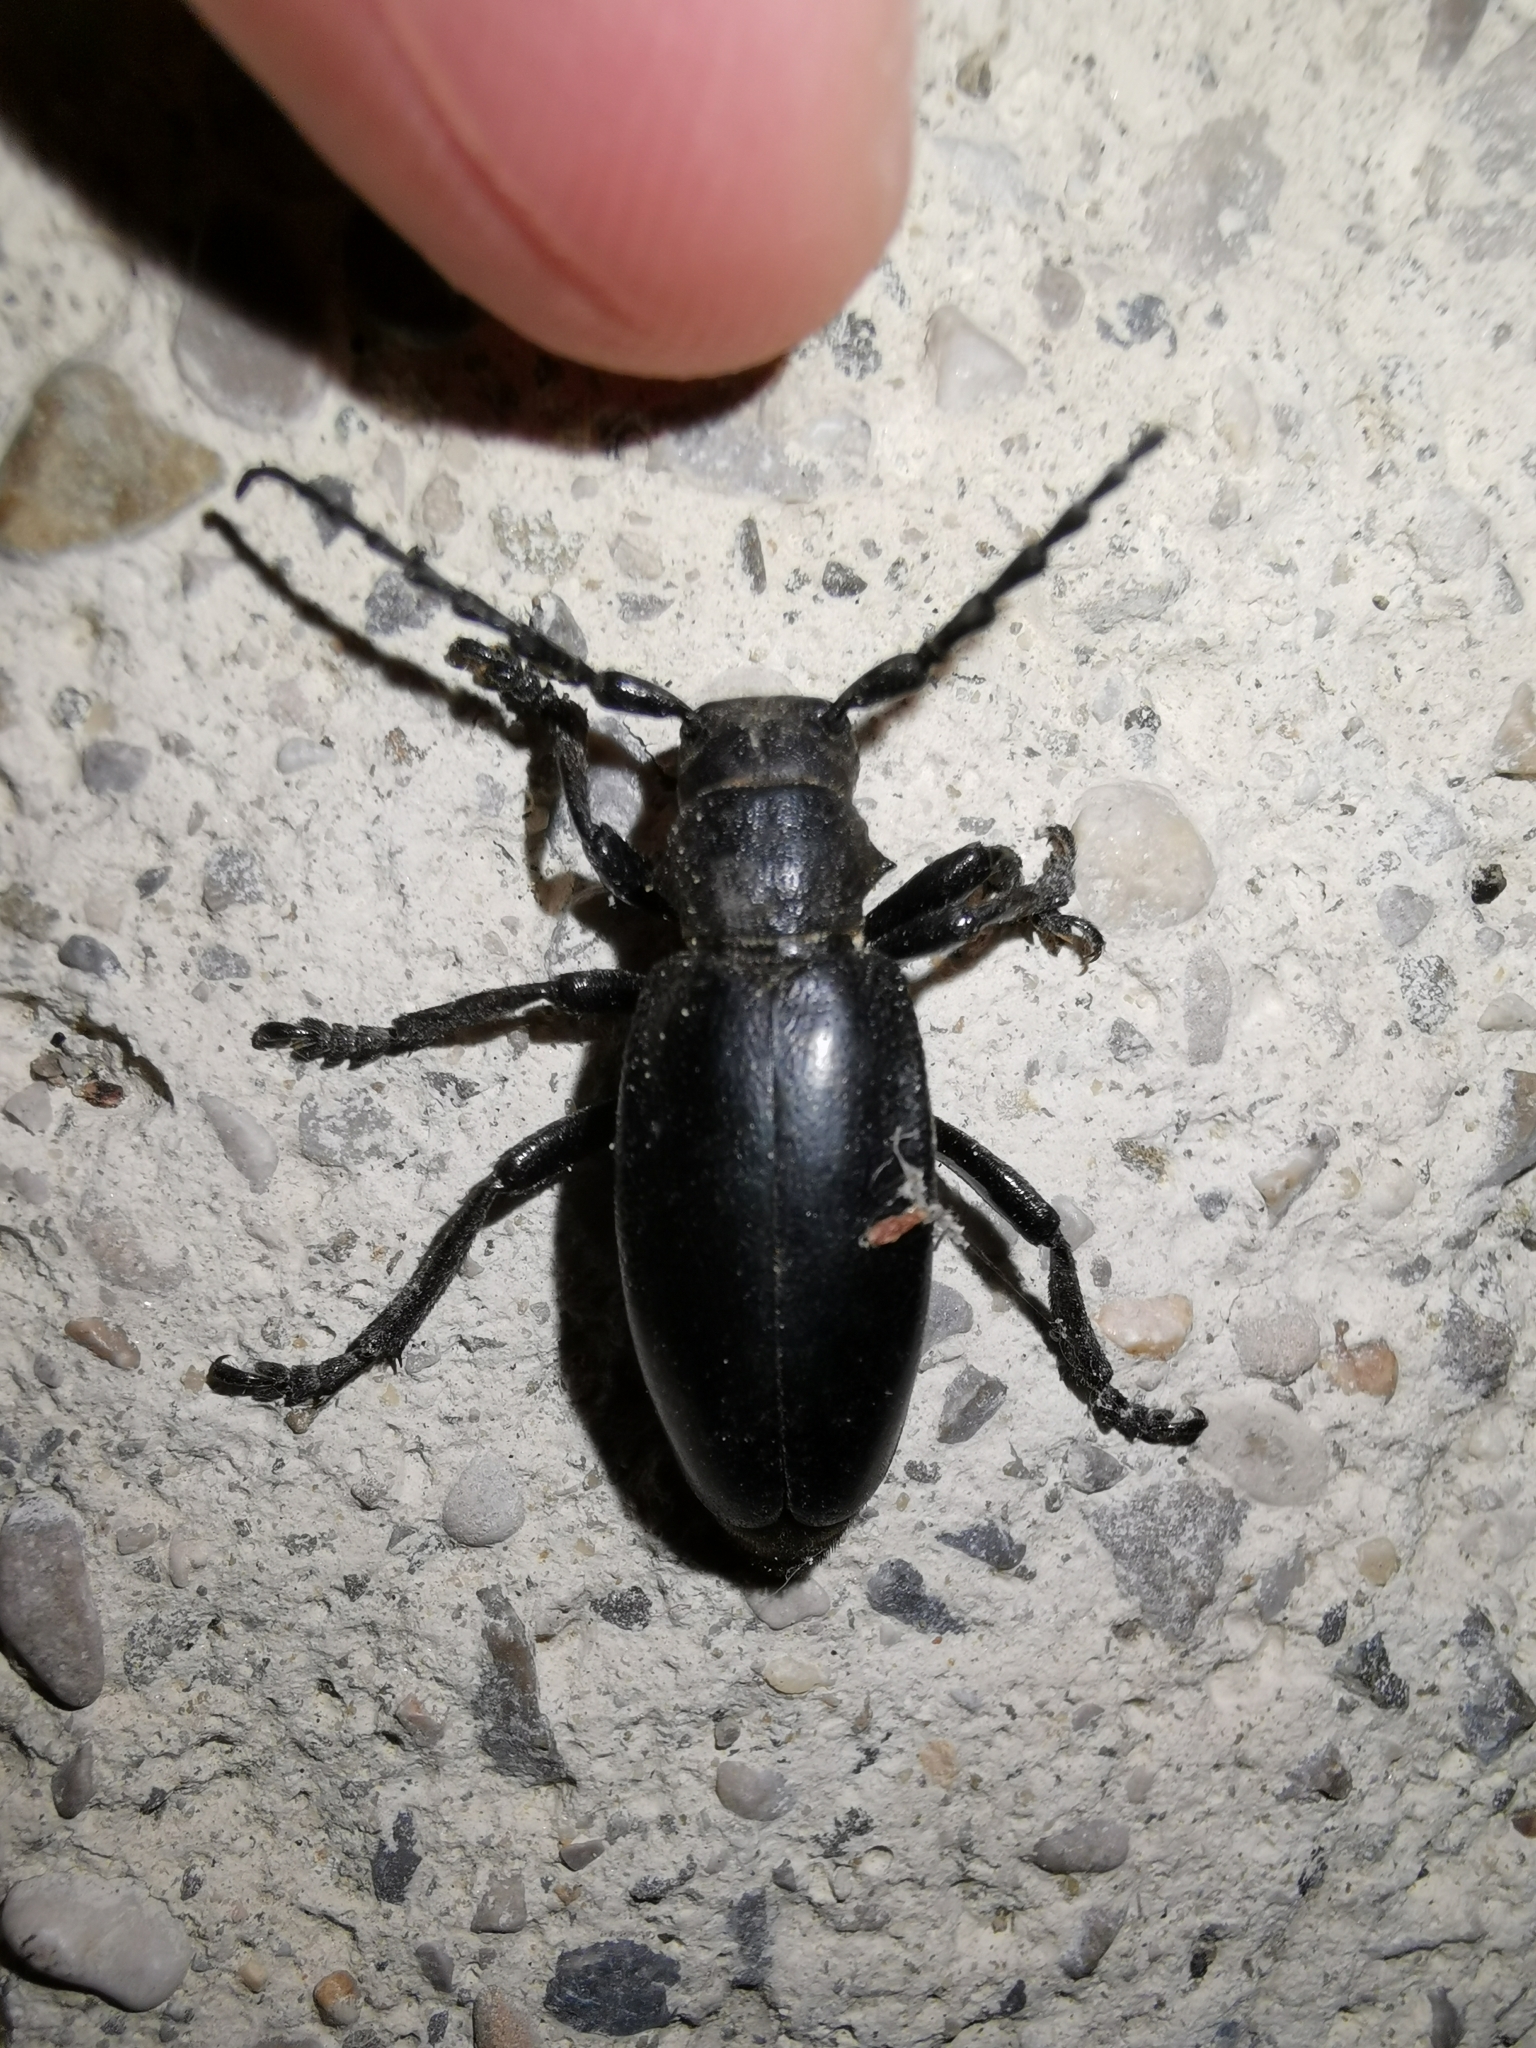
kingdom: Animalia
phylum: Arthropoda
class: Insecta
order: Coleoptera
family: Cerambycidae
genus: Dorcadion
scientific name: Dorcadion aethiops
